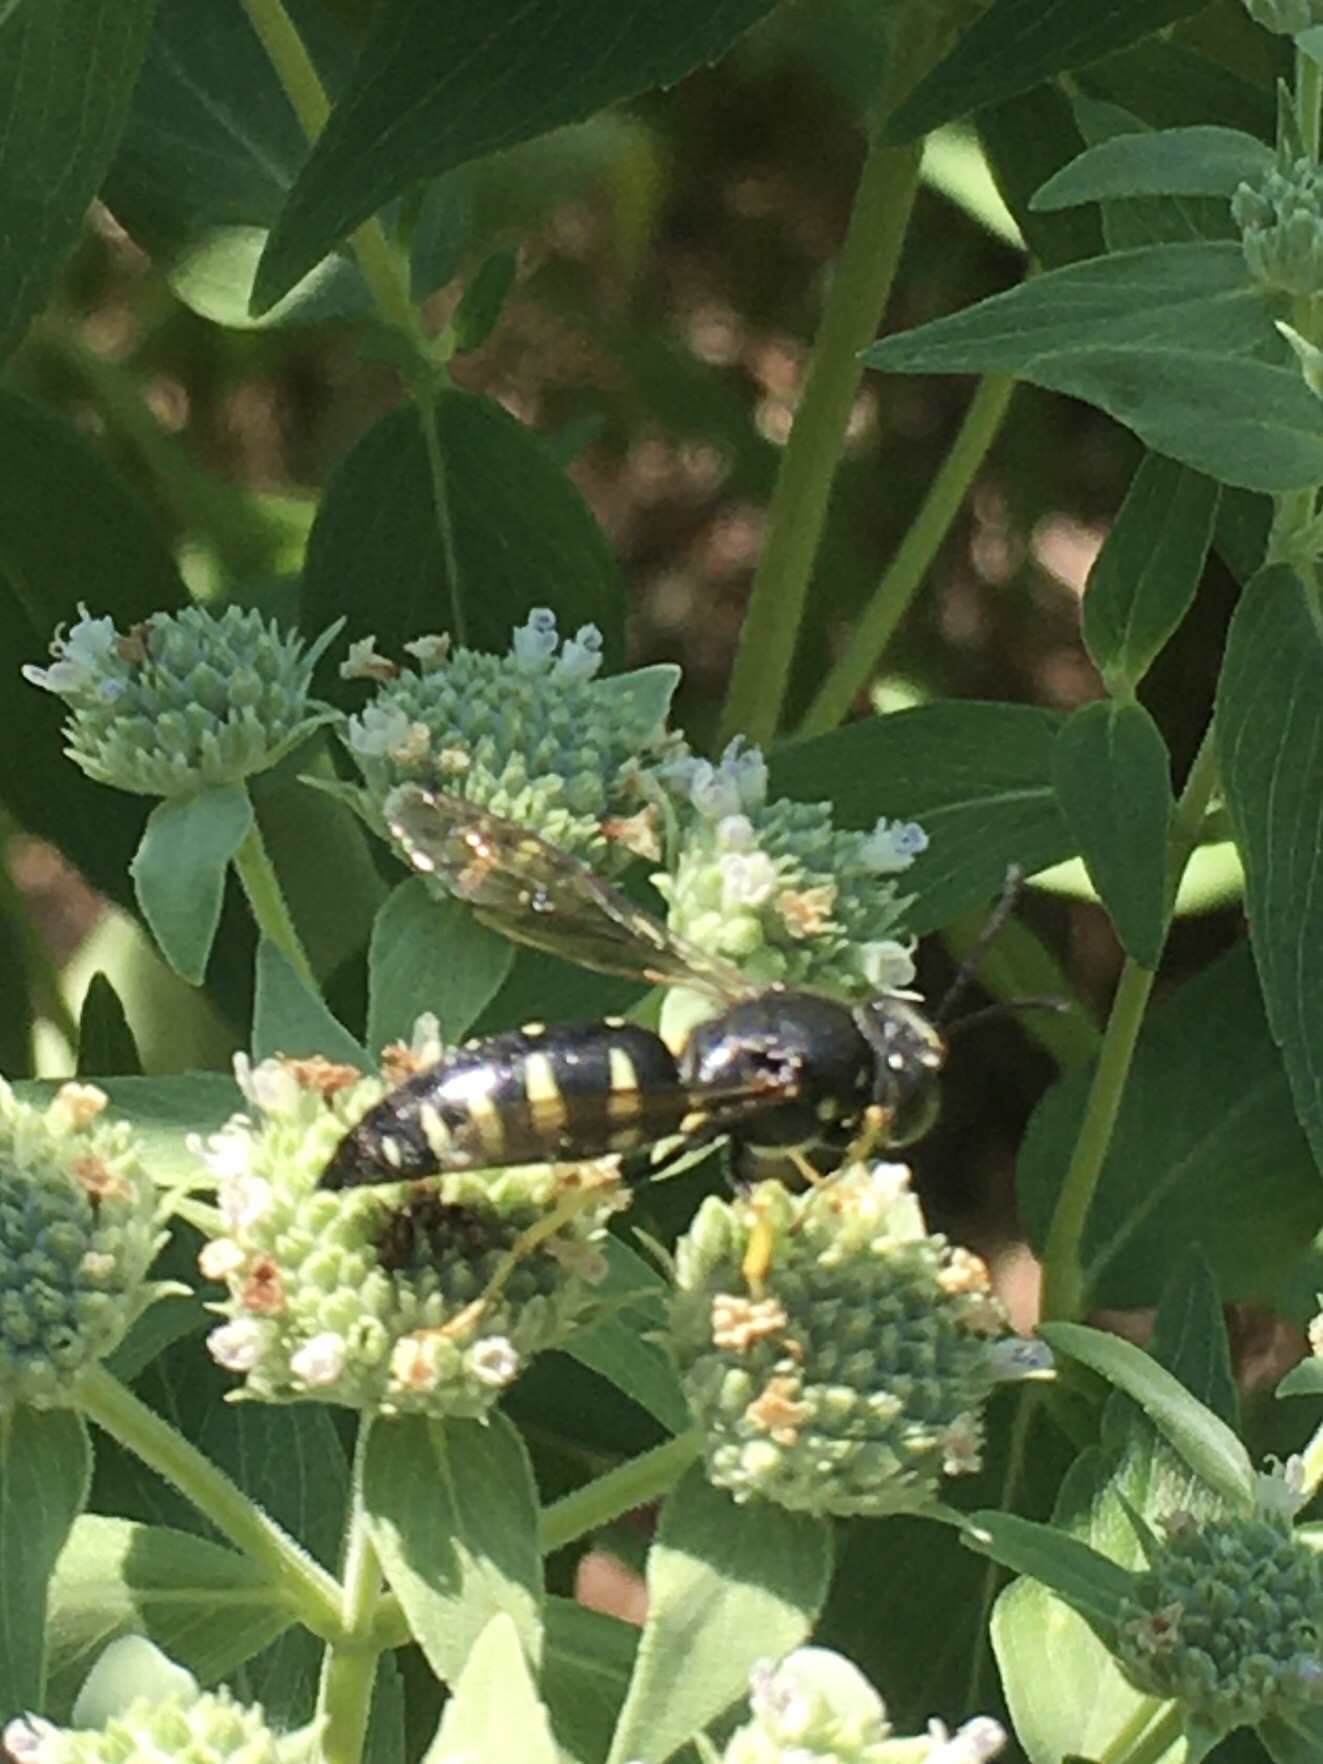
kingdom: Animalia
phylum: Arthropoda
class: Insecta
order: Hymenoptera
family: Crabronidae
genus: Bicyrtes
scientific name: Bicyrtes quadrifasciatus
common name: Four-banded stink bug hunter wasp
